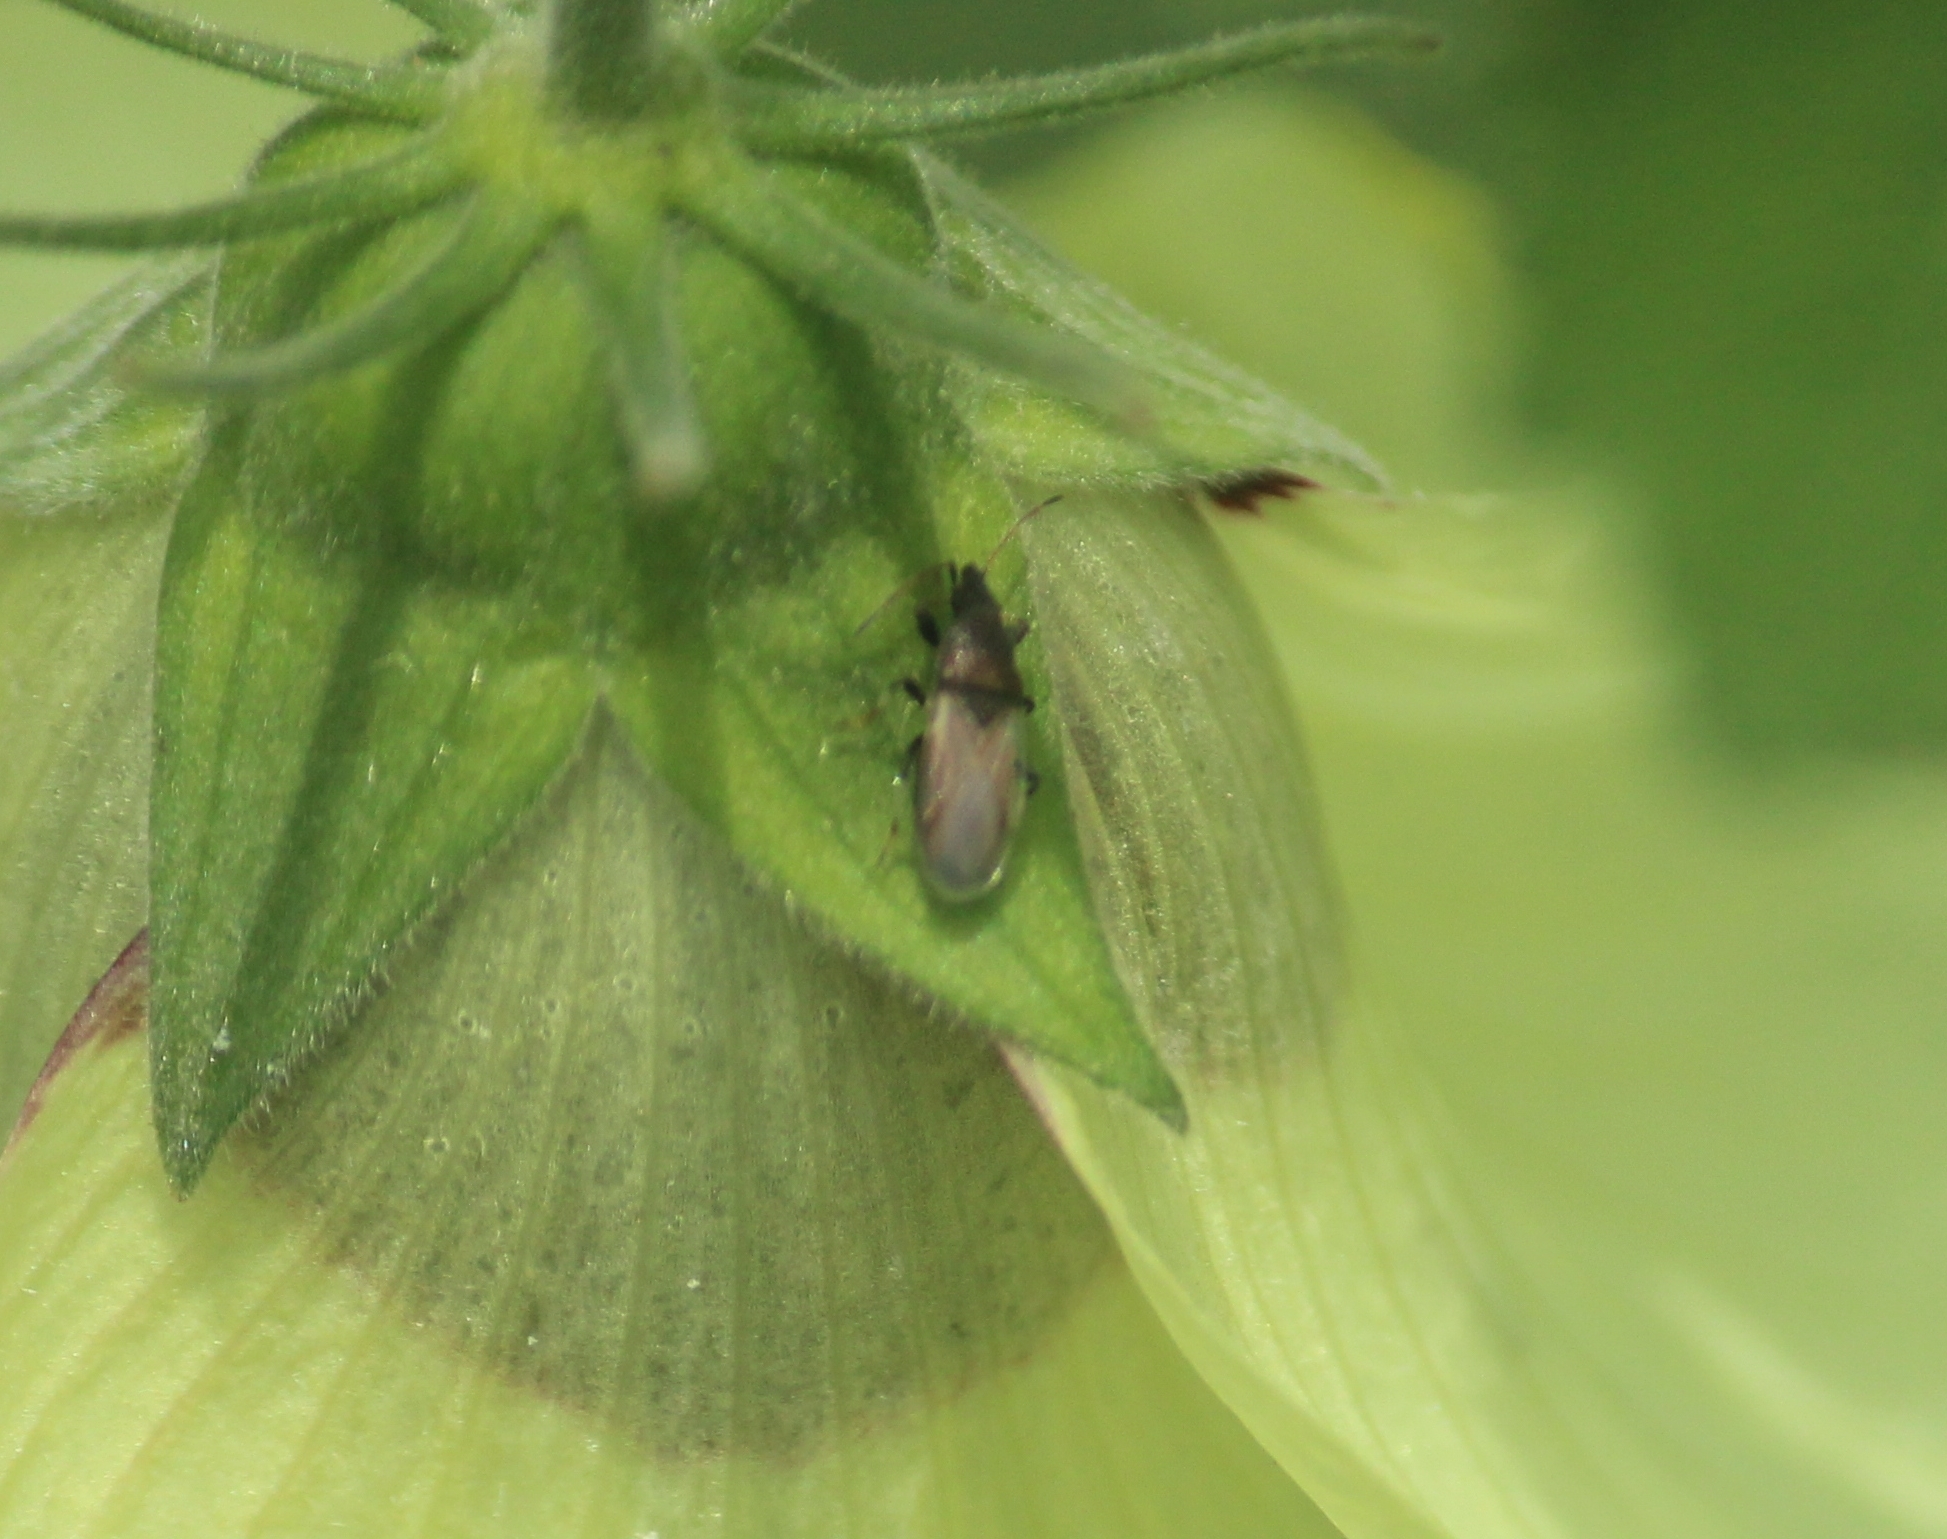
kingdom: Animalia
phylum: Arthropoda
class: Insecta
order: Hemiptera
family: Oxycarenidae
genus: Oxycarenus
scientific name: Oxycarenus hyalinipennis
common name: Cotton seed bug
